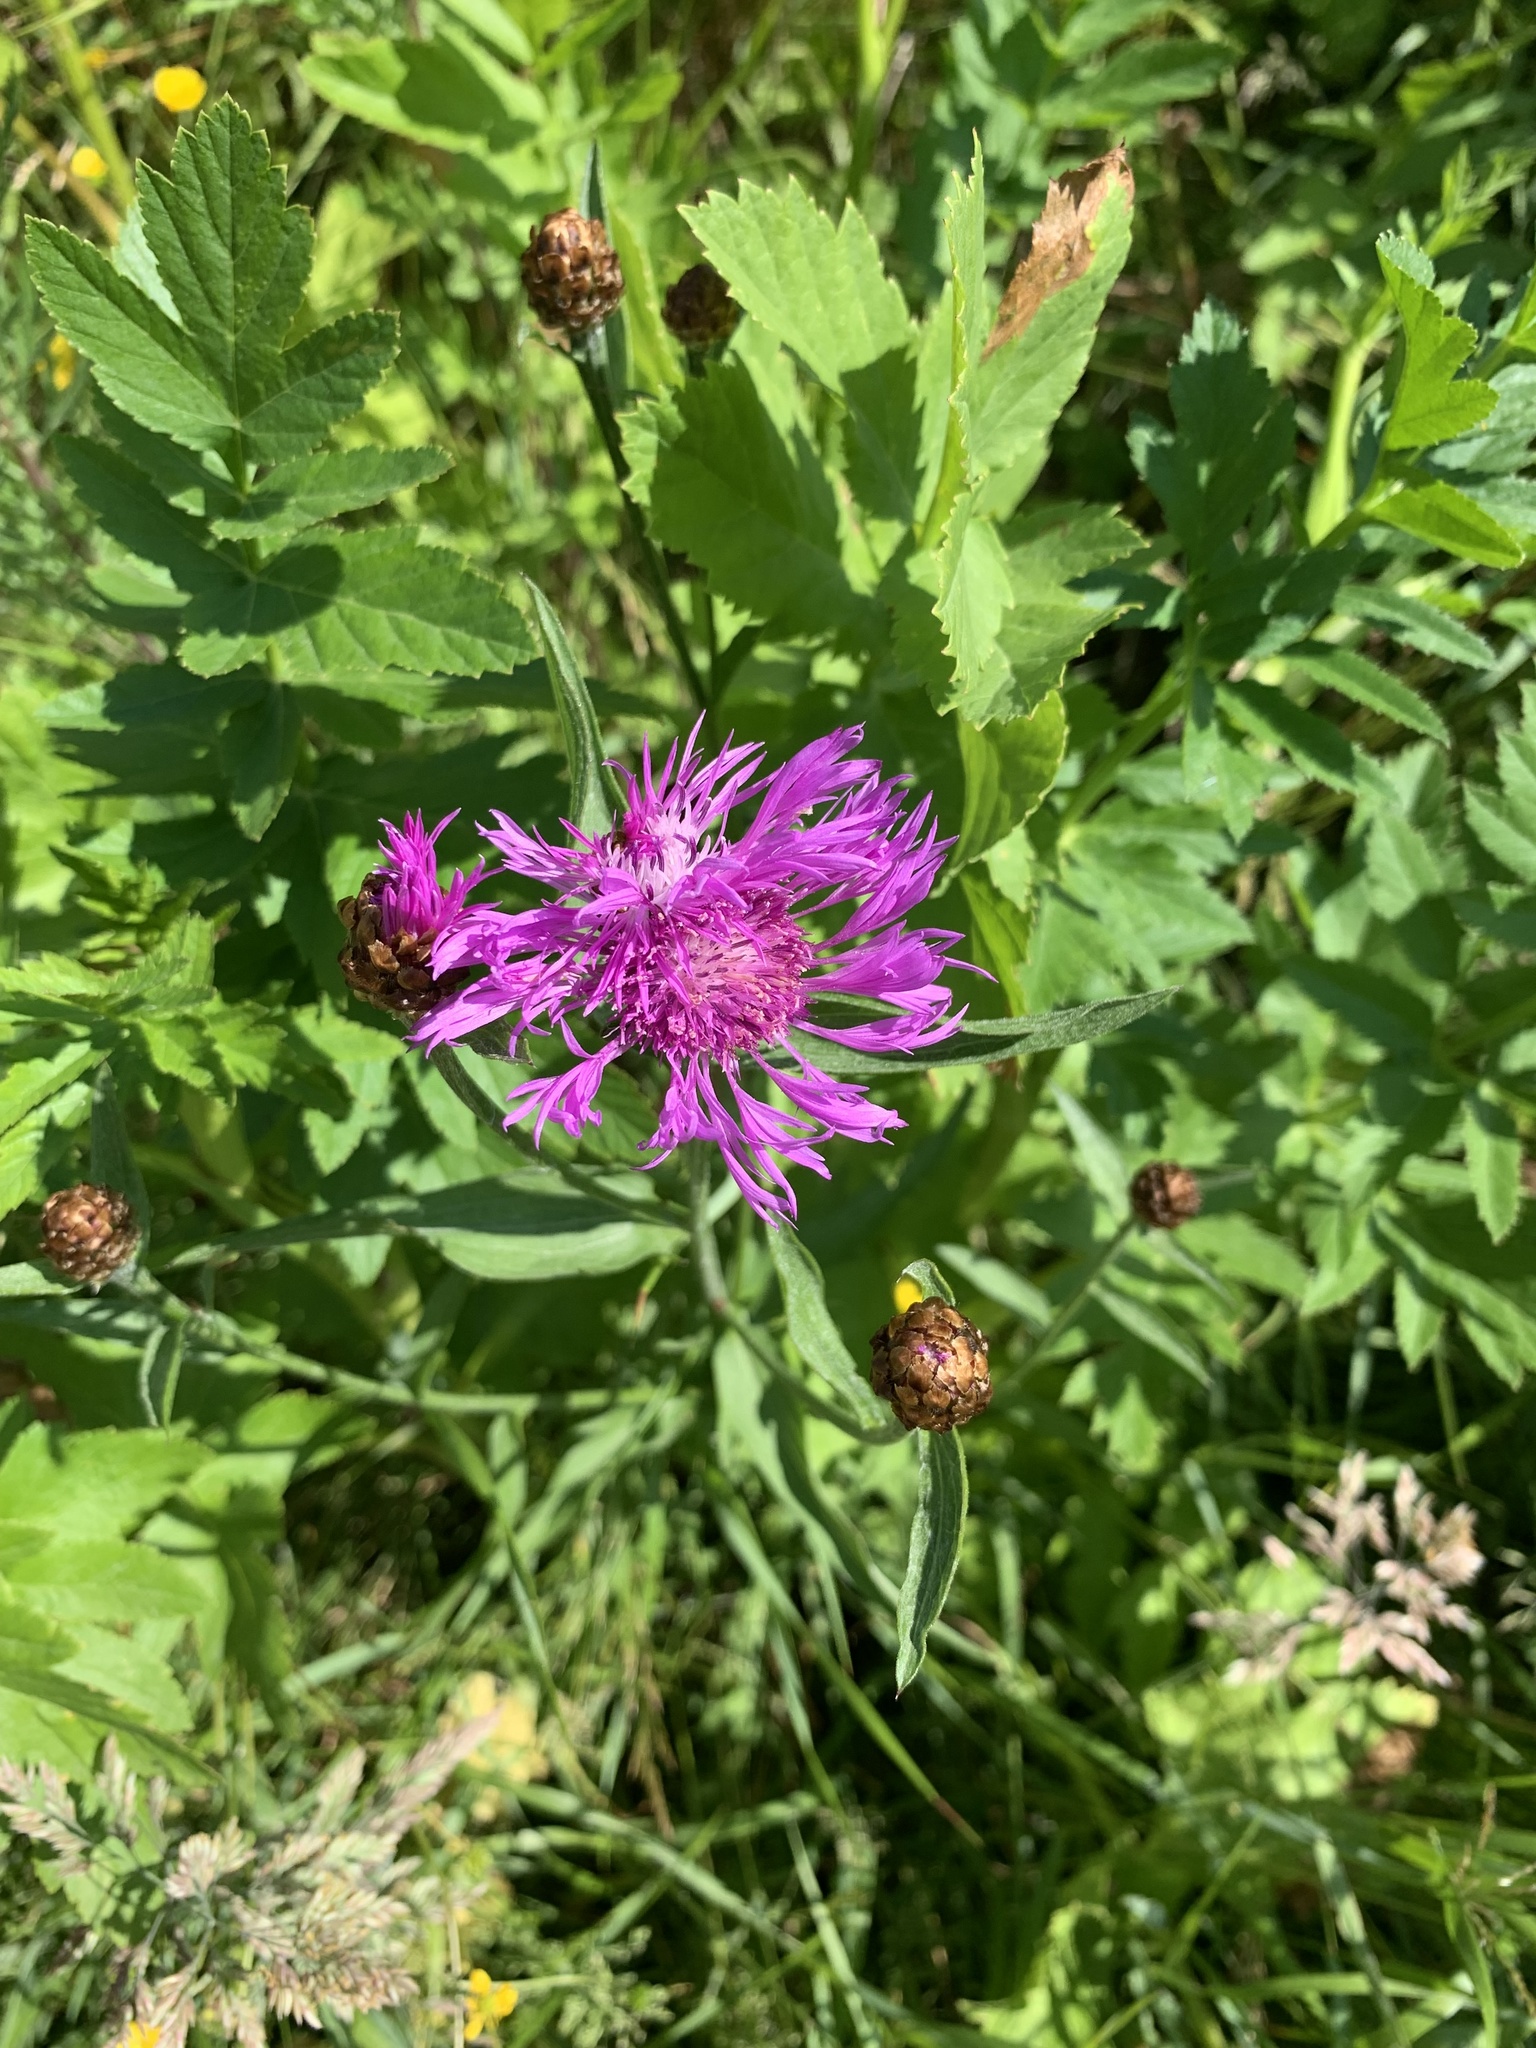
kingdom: Plantae
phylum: Tracheophyta
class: Magnoliopsida
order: Asterales
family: Asteraceae
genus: Centaurea
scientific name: Centaurea jacea
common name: Brown knapweed
